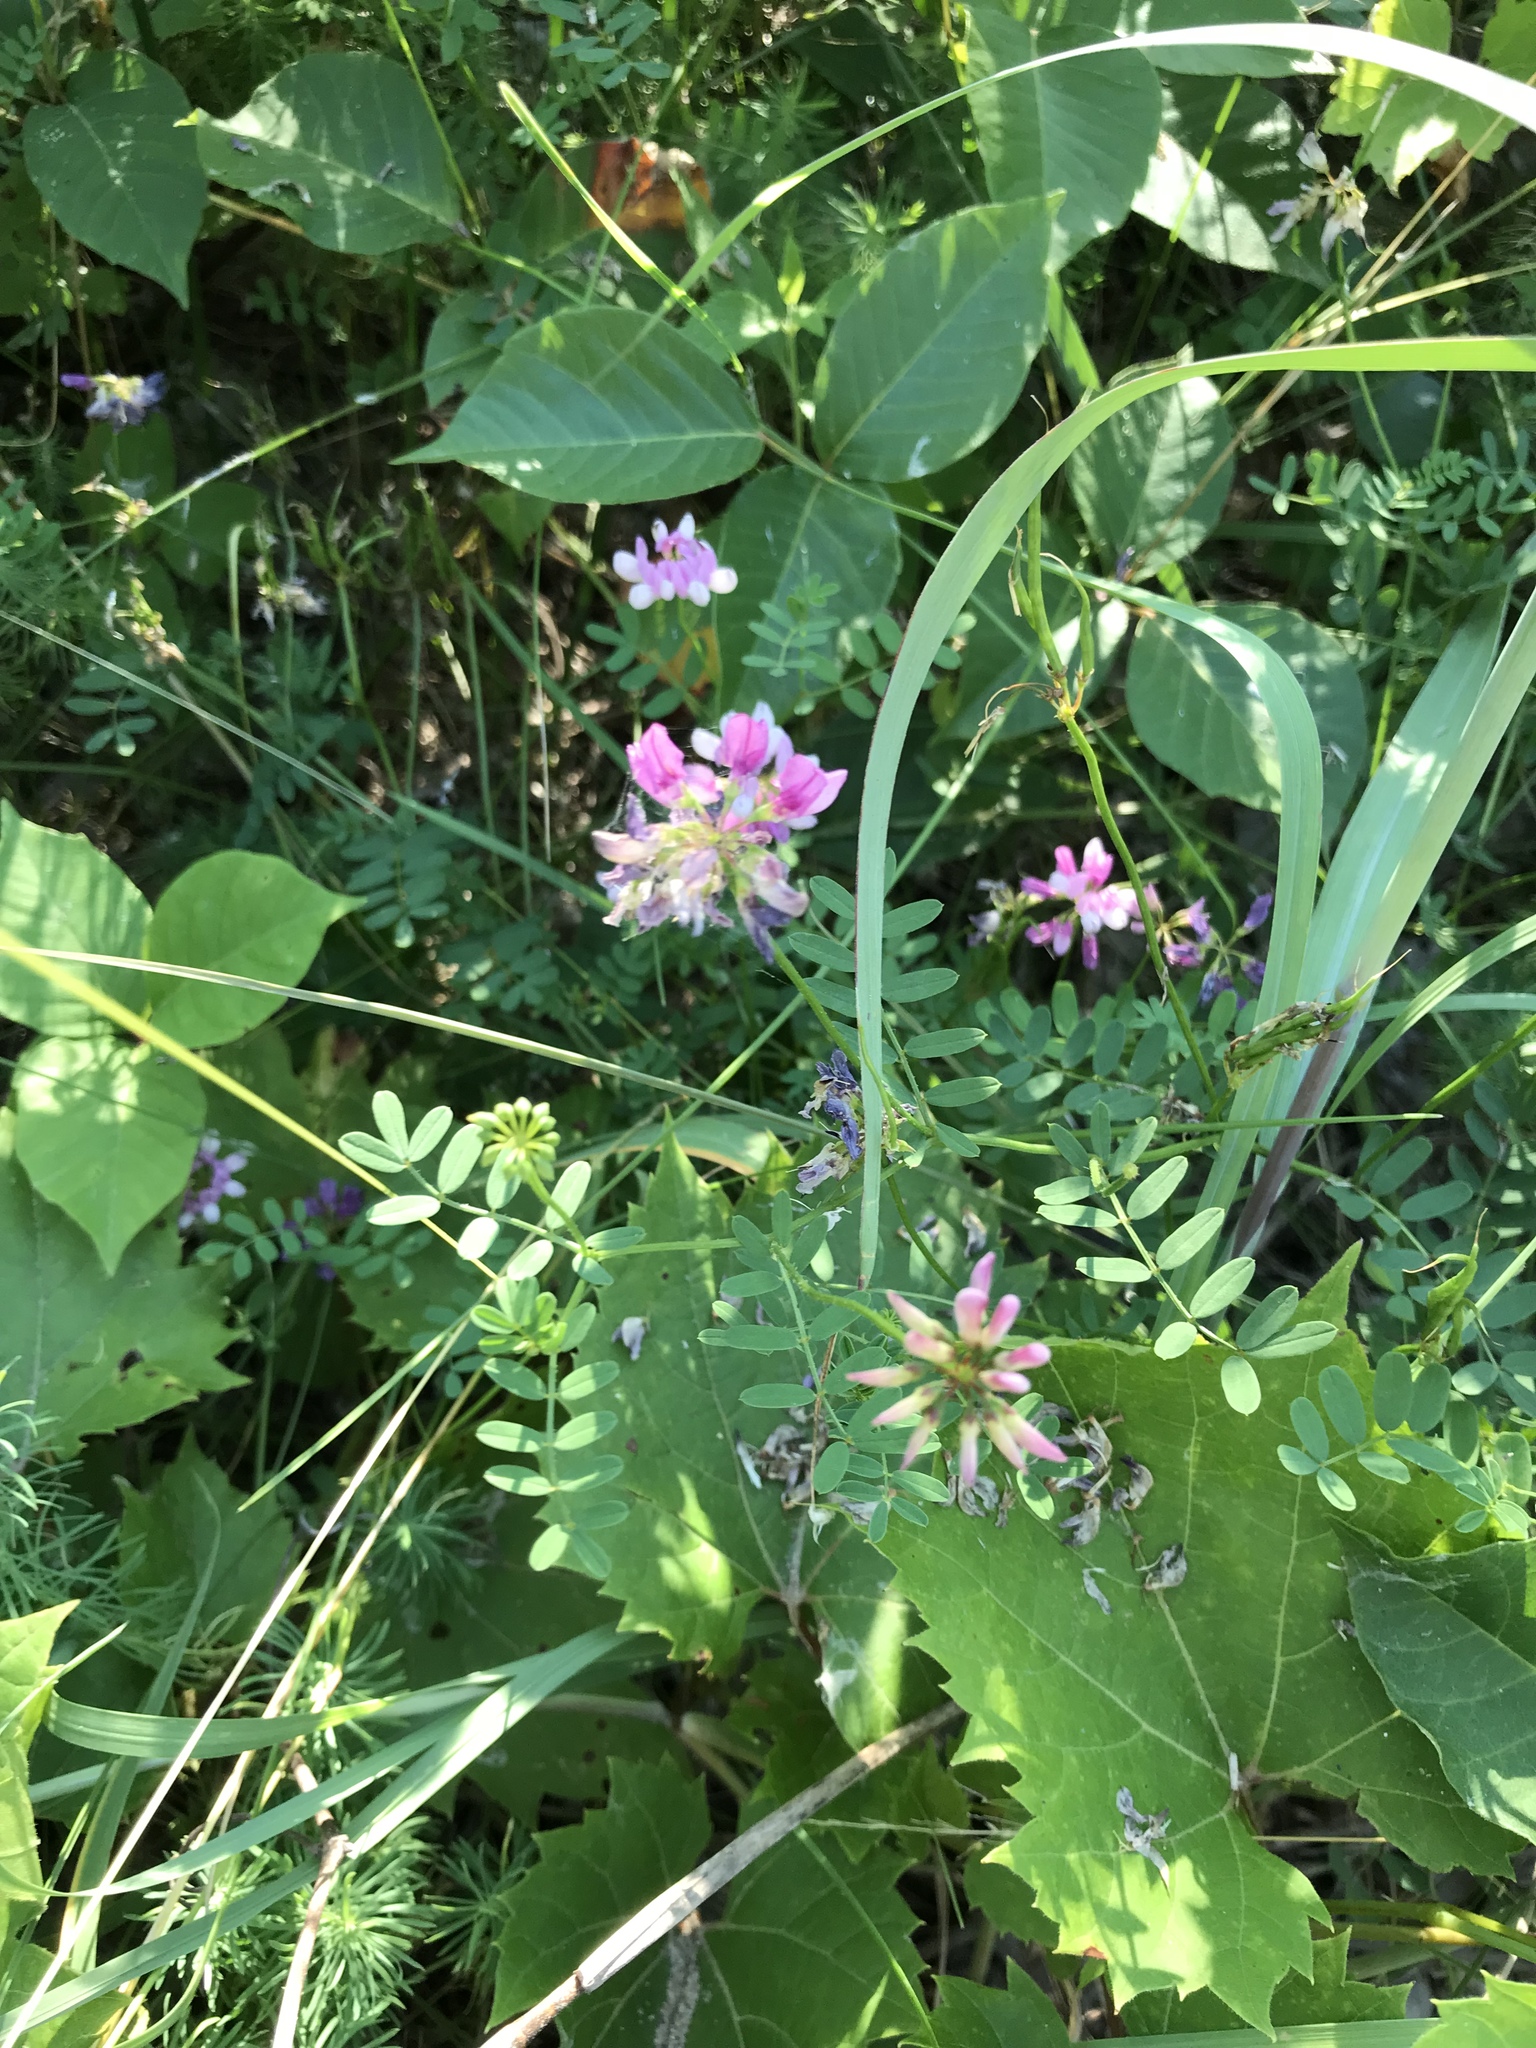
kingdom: Plantae
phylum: Tracheophyta
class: Magnoliopsida
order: Fabales
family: Fabaceae
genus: Coronilla
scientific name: Coronilla varia
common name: Crownvetch
